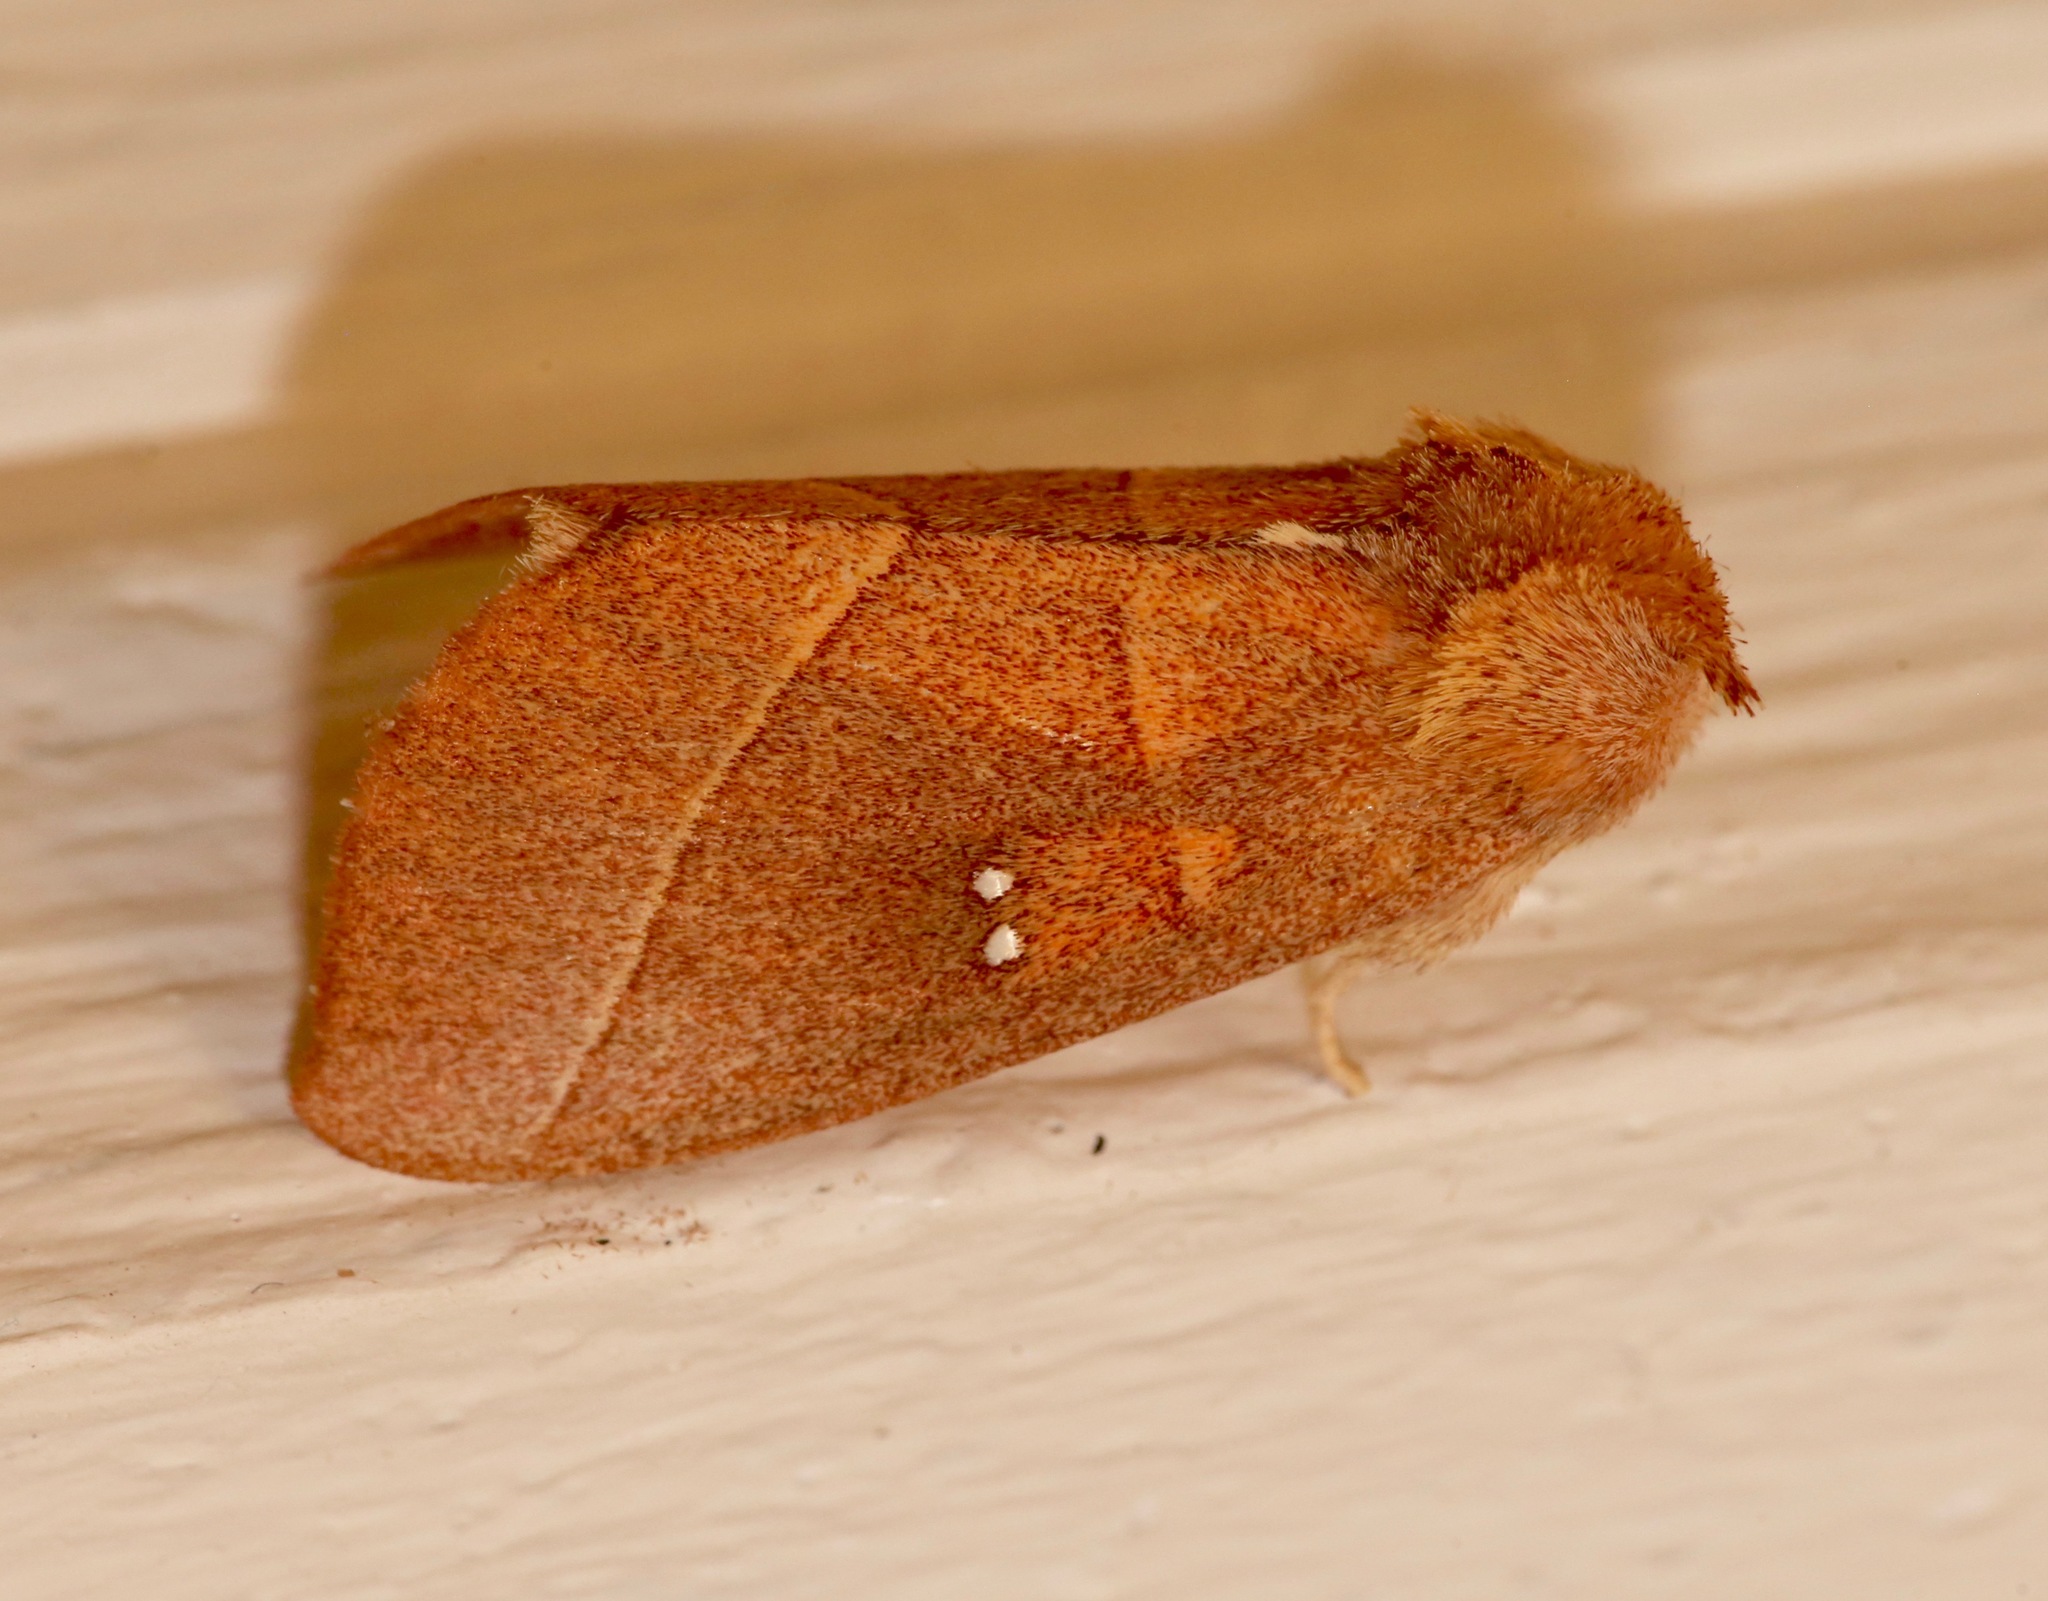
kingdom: Animalia
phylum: Arthropoda
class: Insecta
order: Lepidoptera
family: Notodontidae
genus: Nadata
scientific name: Nadata gibbosa
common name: White-dotted prominent
